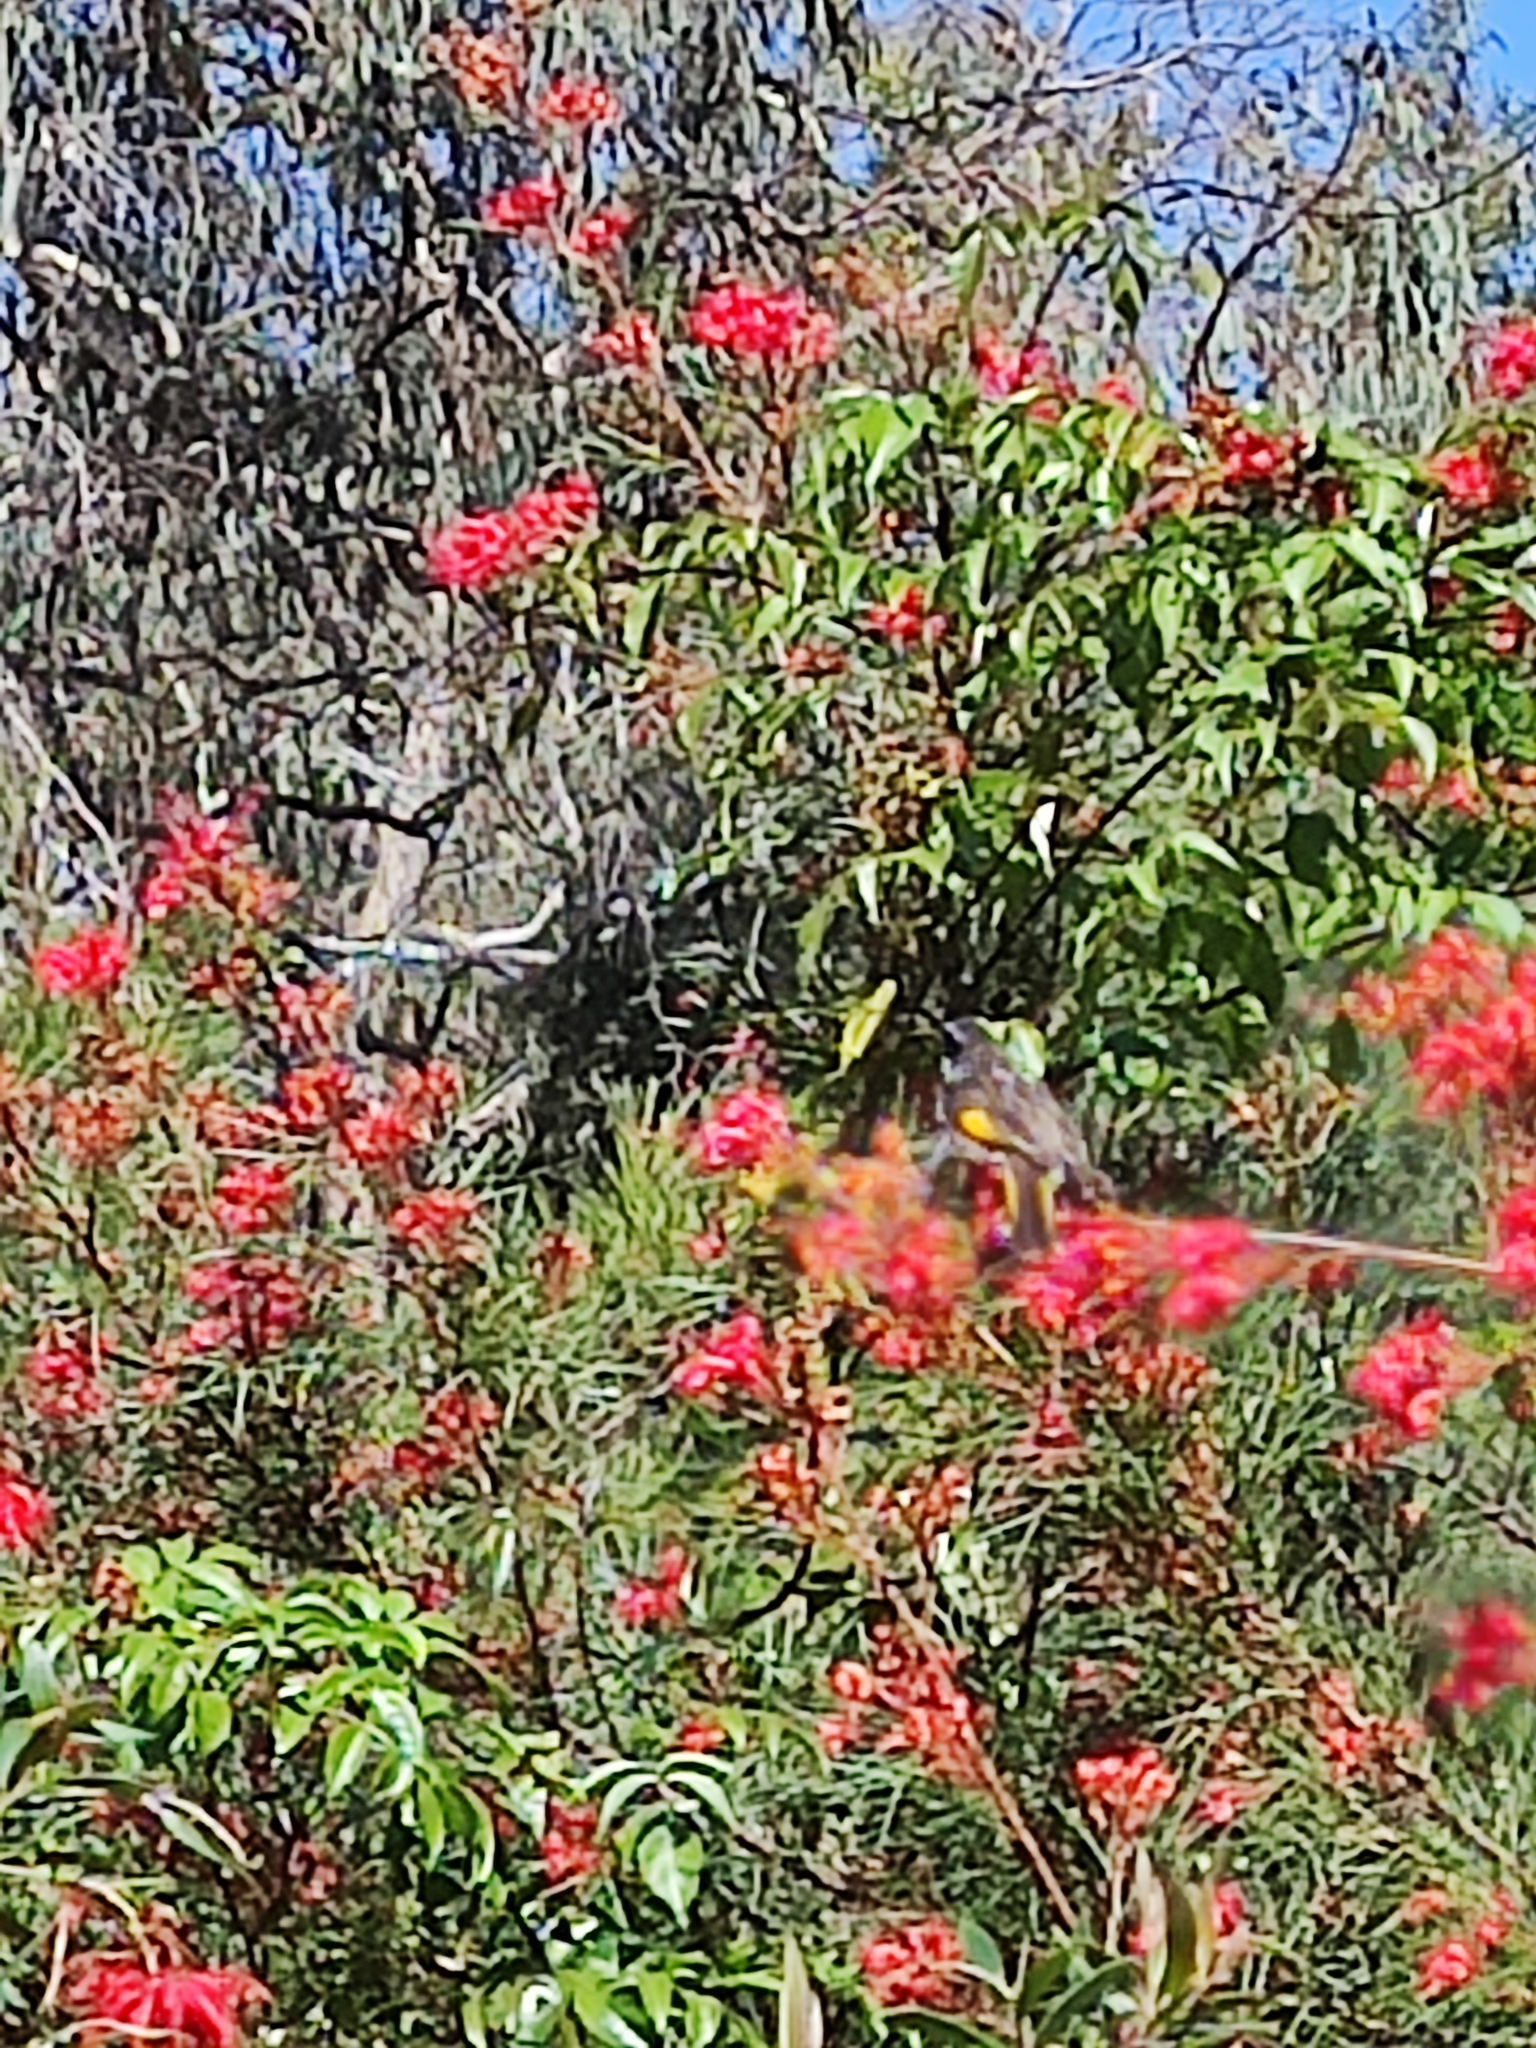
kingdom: Animalia
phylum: Chordata
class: Aves
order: Passeriformes
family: Meliphagidae
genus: Phylidonyris
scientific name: Phylidonyris novaehollandiae
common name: New holland honeyeater
